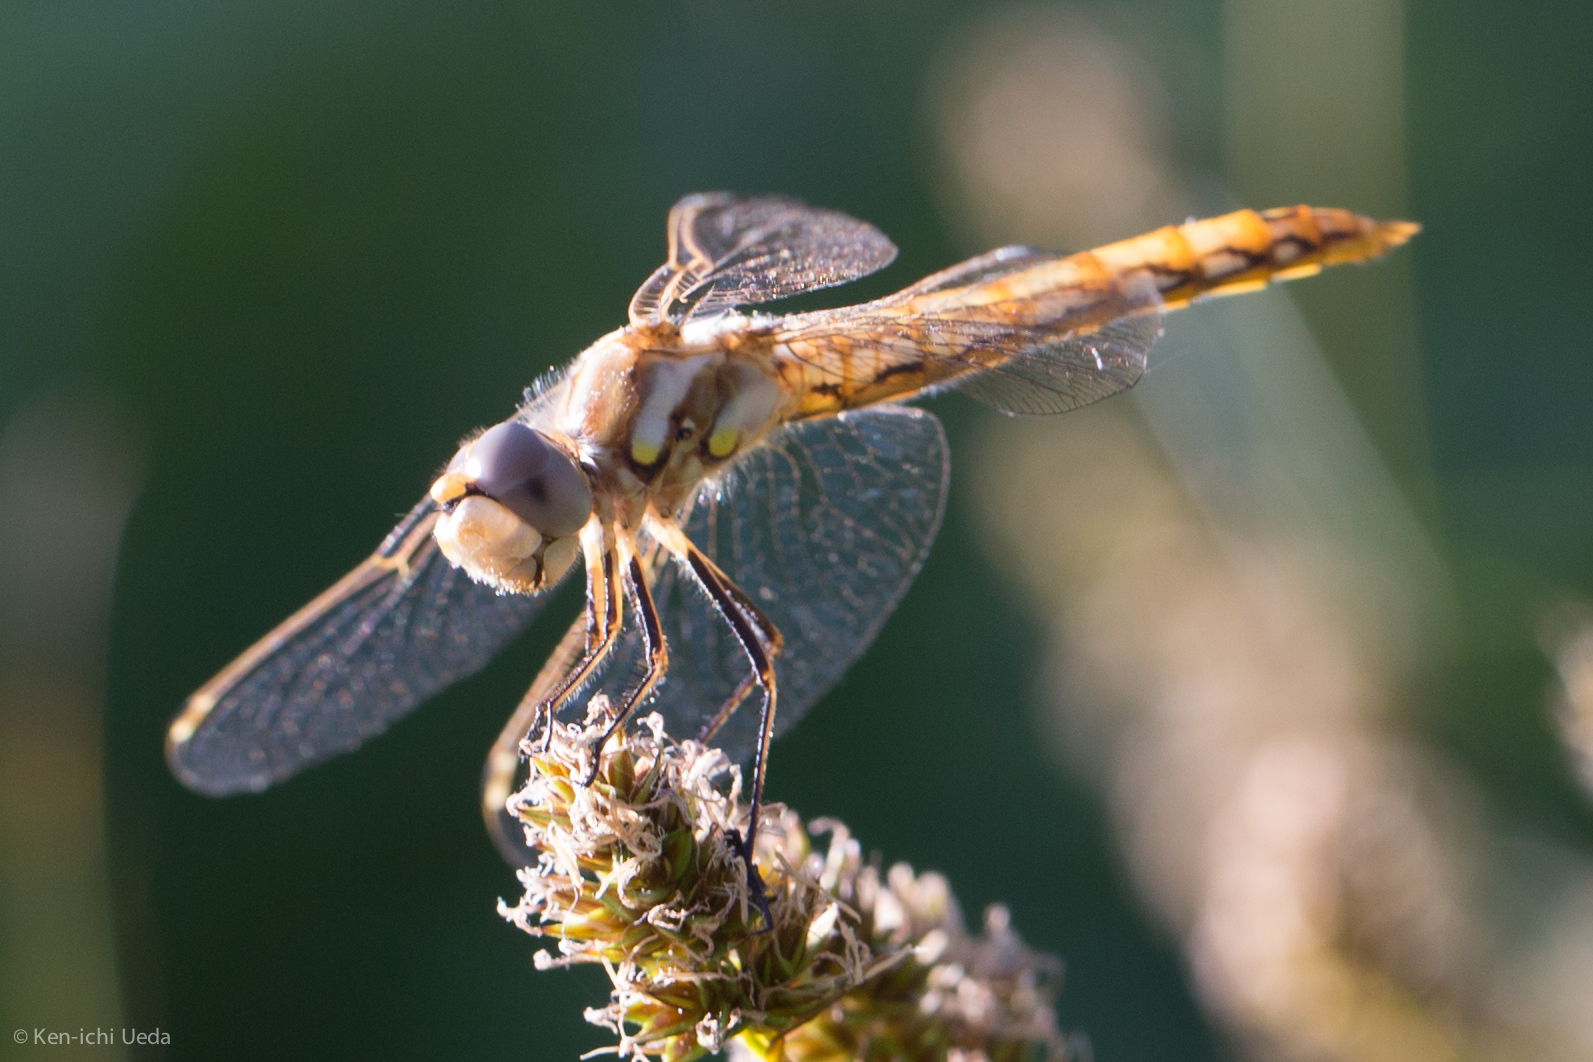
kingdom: Animalia
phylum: Arthropoda
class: Insecta
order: Odonata
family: Libellulidae
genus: Sympetrum
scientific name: Sympetrum corruptum
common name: Variegated meadowhawk
